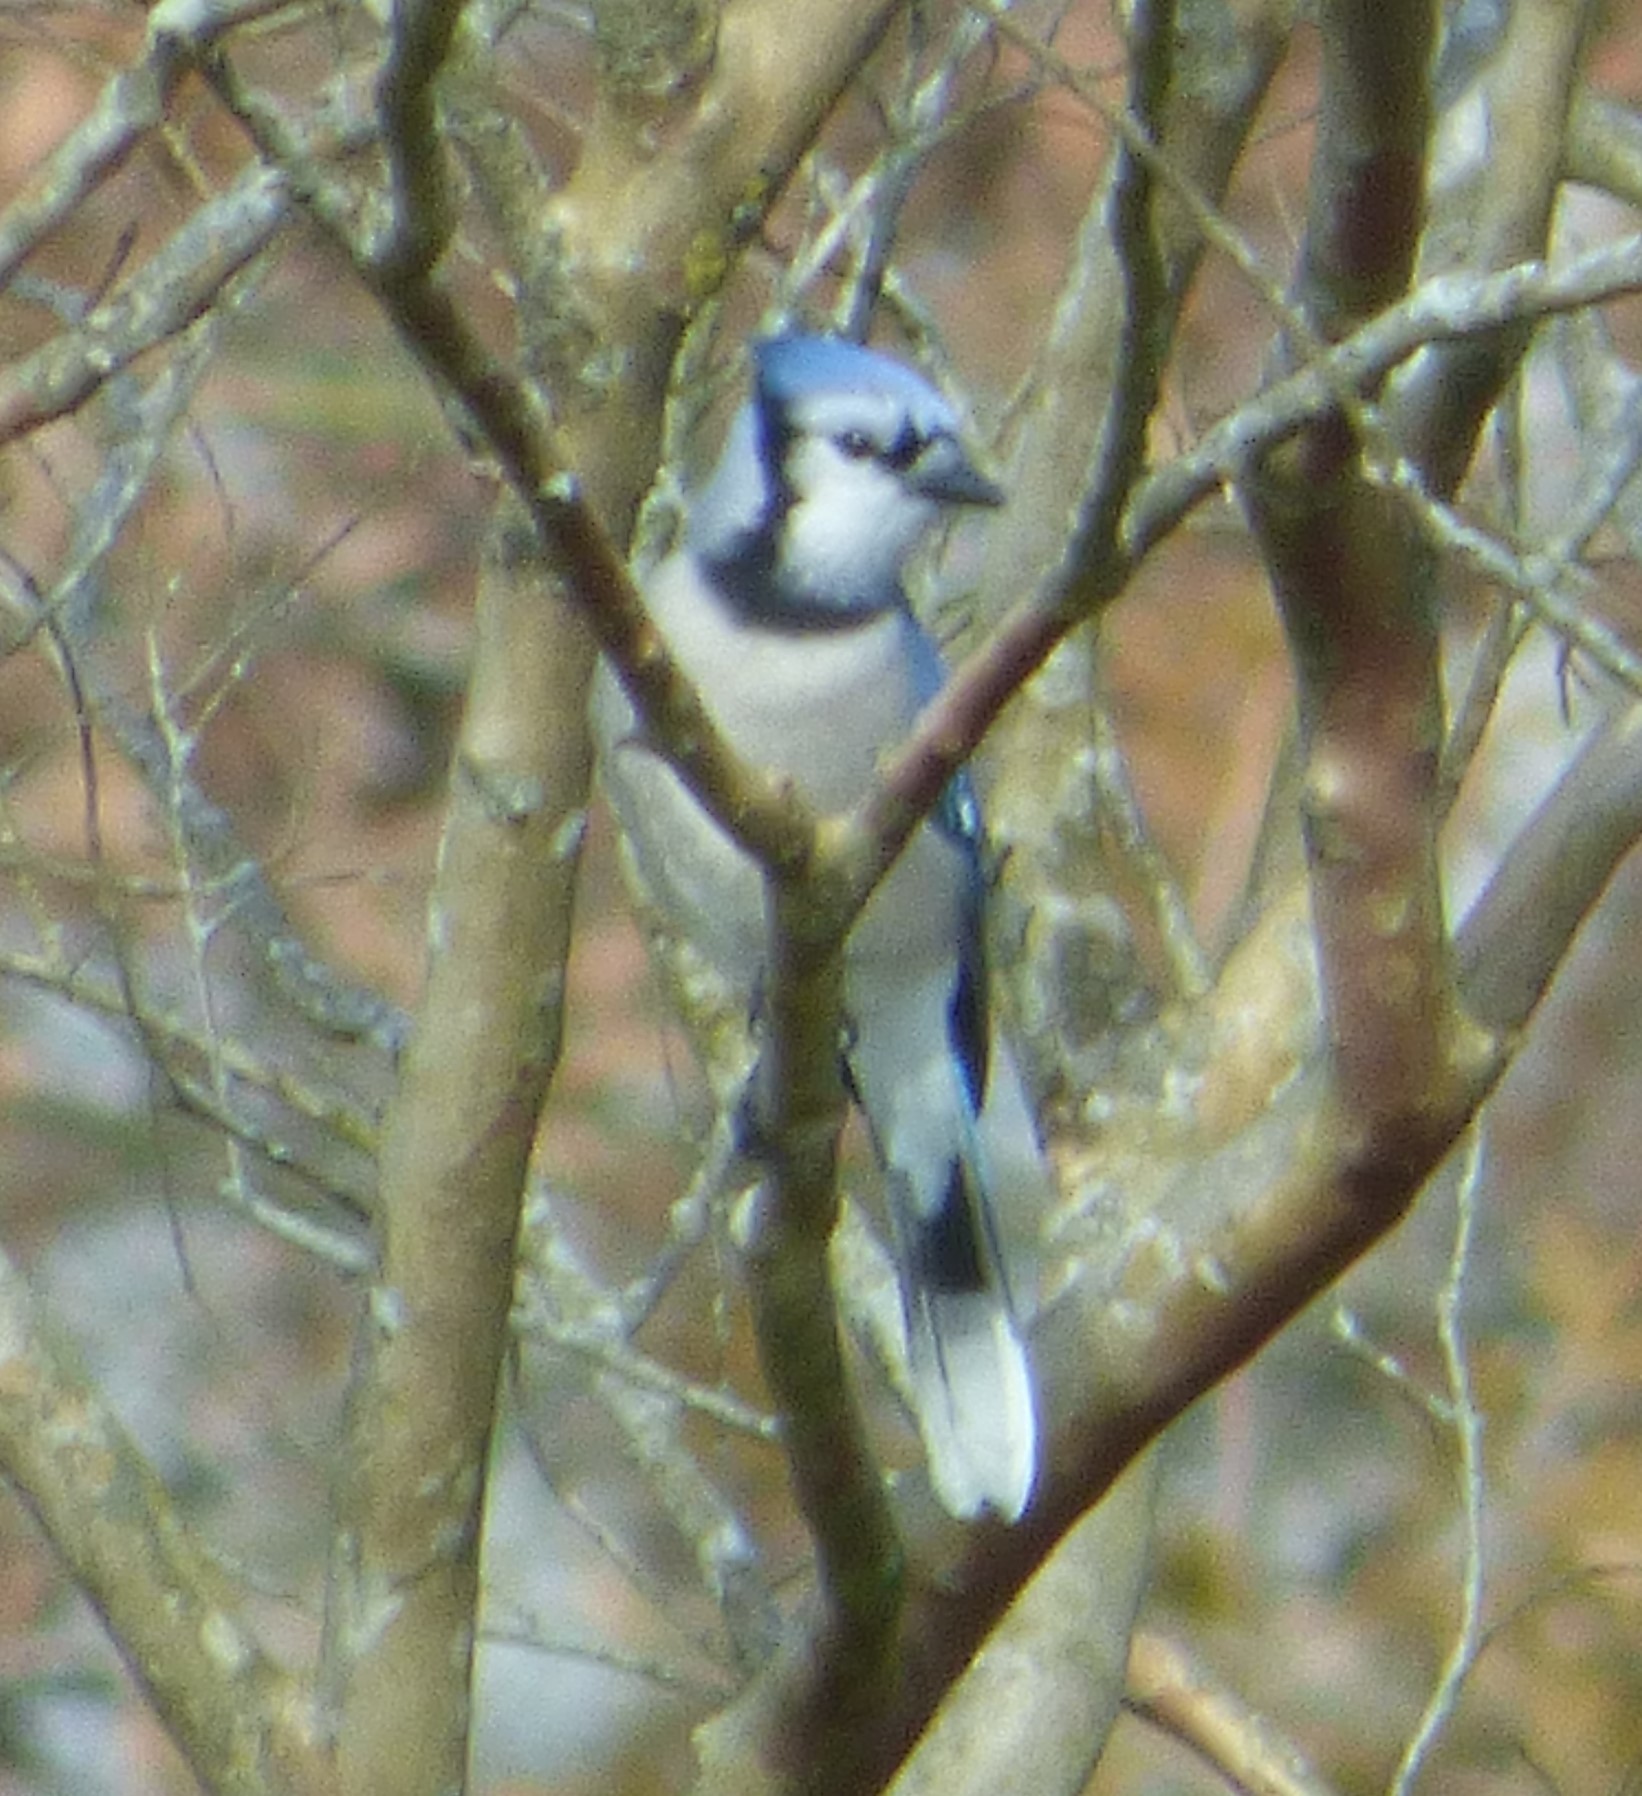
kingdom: Animalia
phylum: Chordata
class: Aves
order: Passeriformes
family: Corvidae
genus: Cyanocitta
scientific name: Cyanocitta cristata
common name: Blue jay
